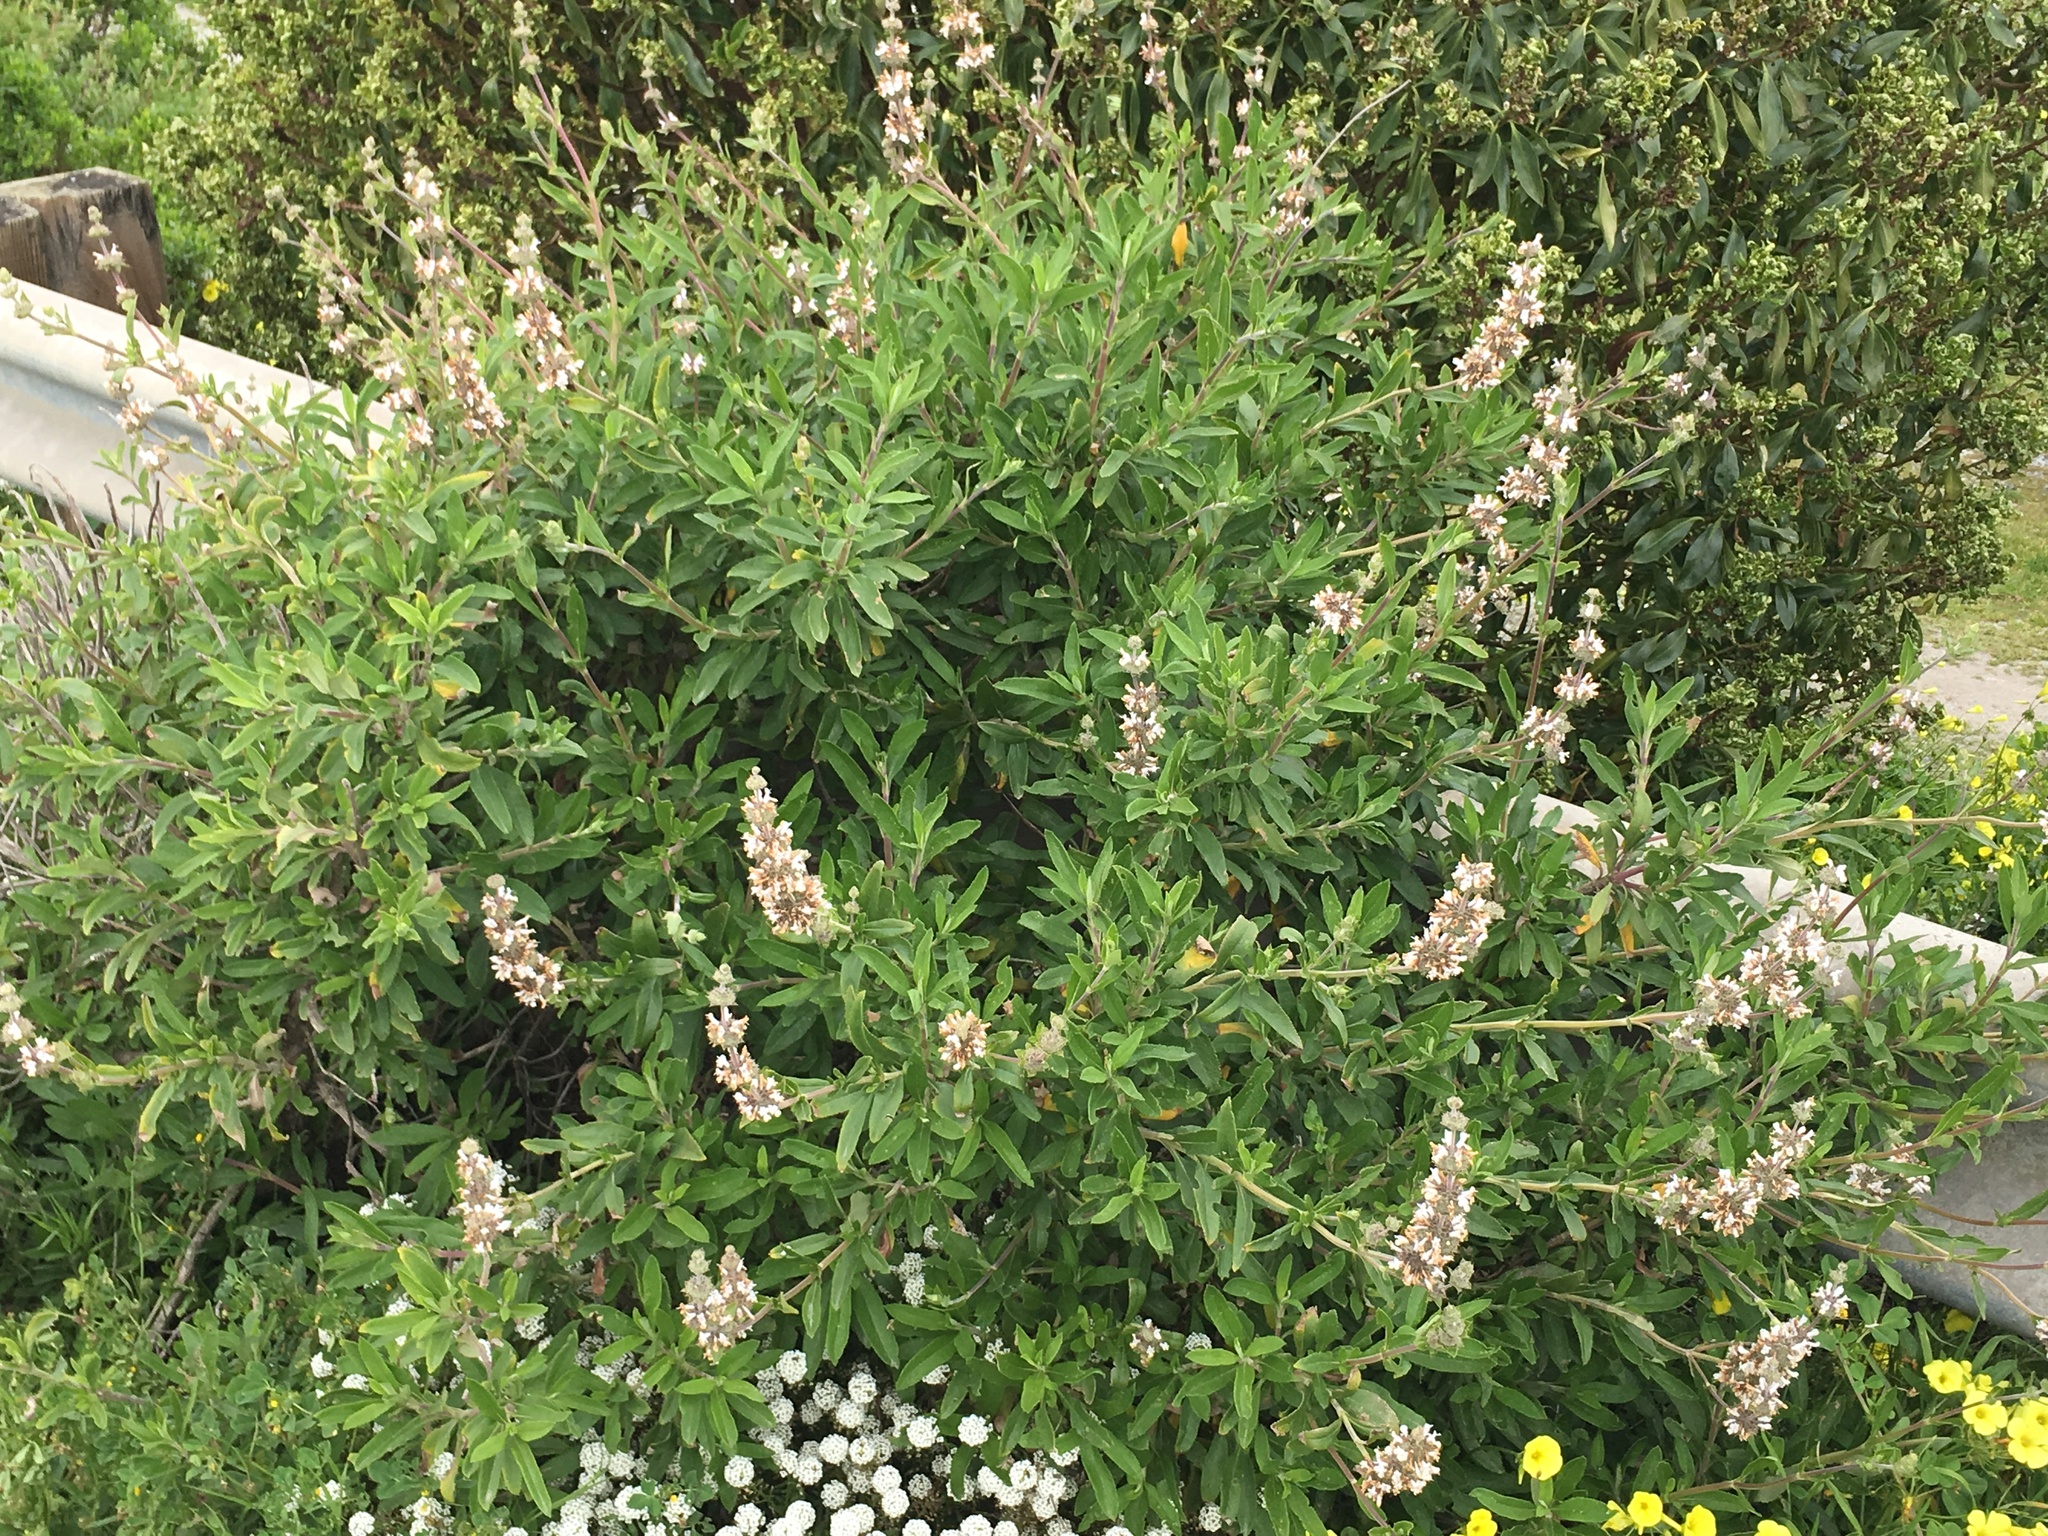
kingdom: Plantae
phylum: Tracheophyta
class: Magnoliopsida
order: Lamiales
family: Lamiaceae
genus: Salvia
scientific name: Salvia mellifera
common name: Black sage
